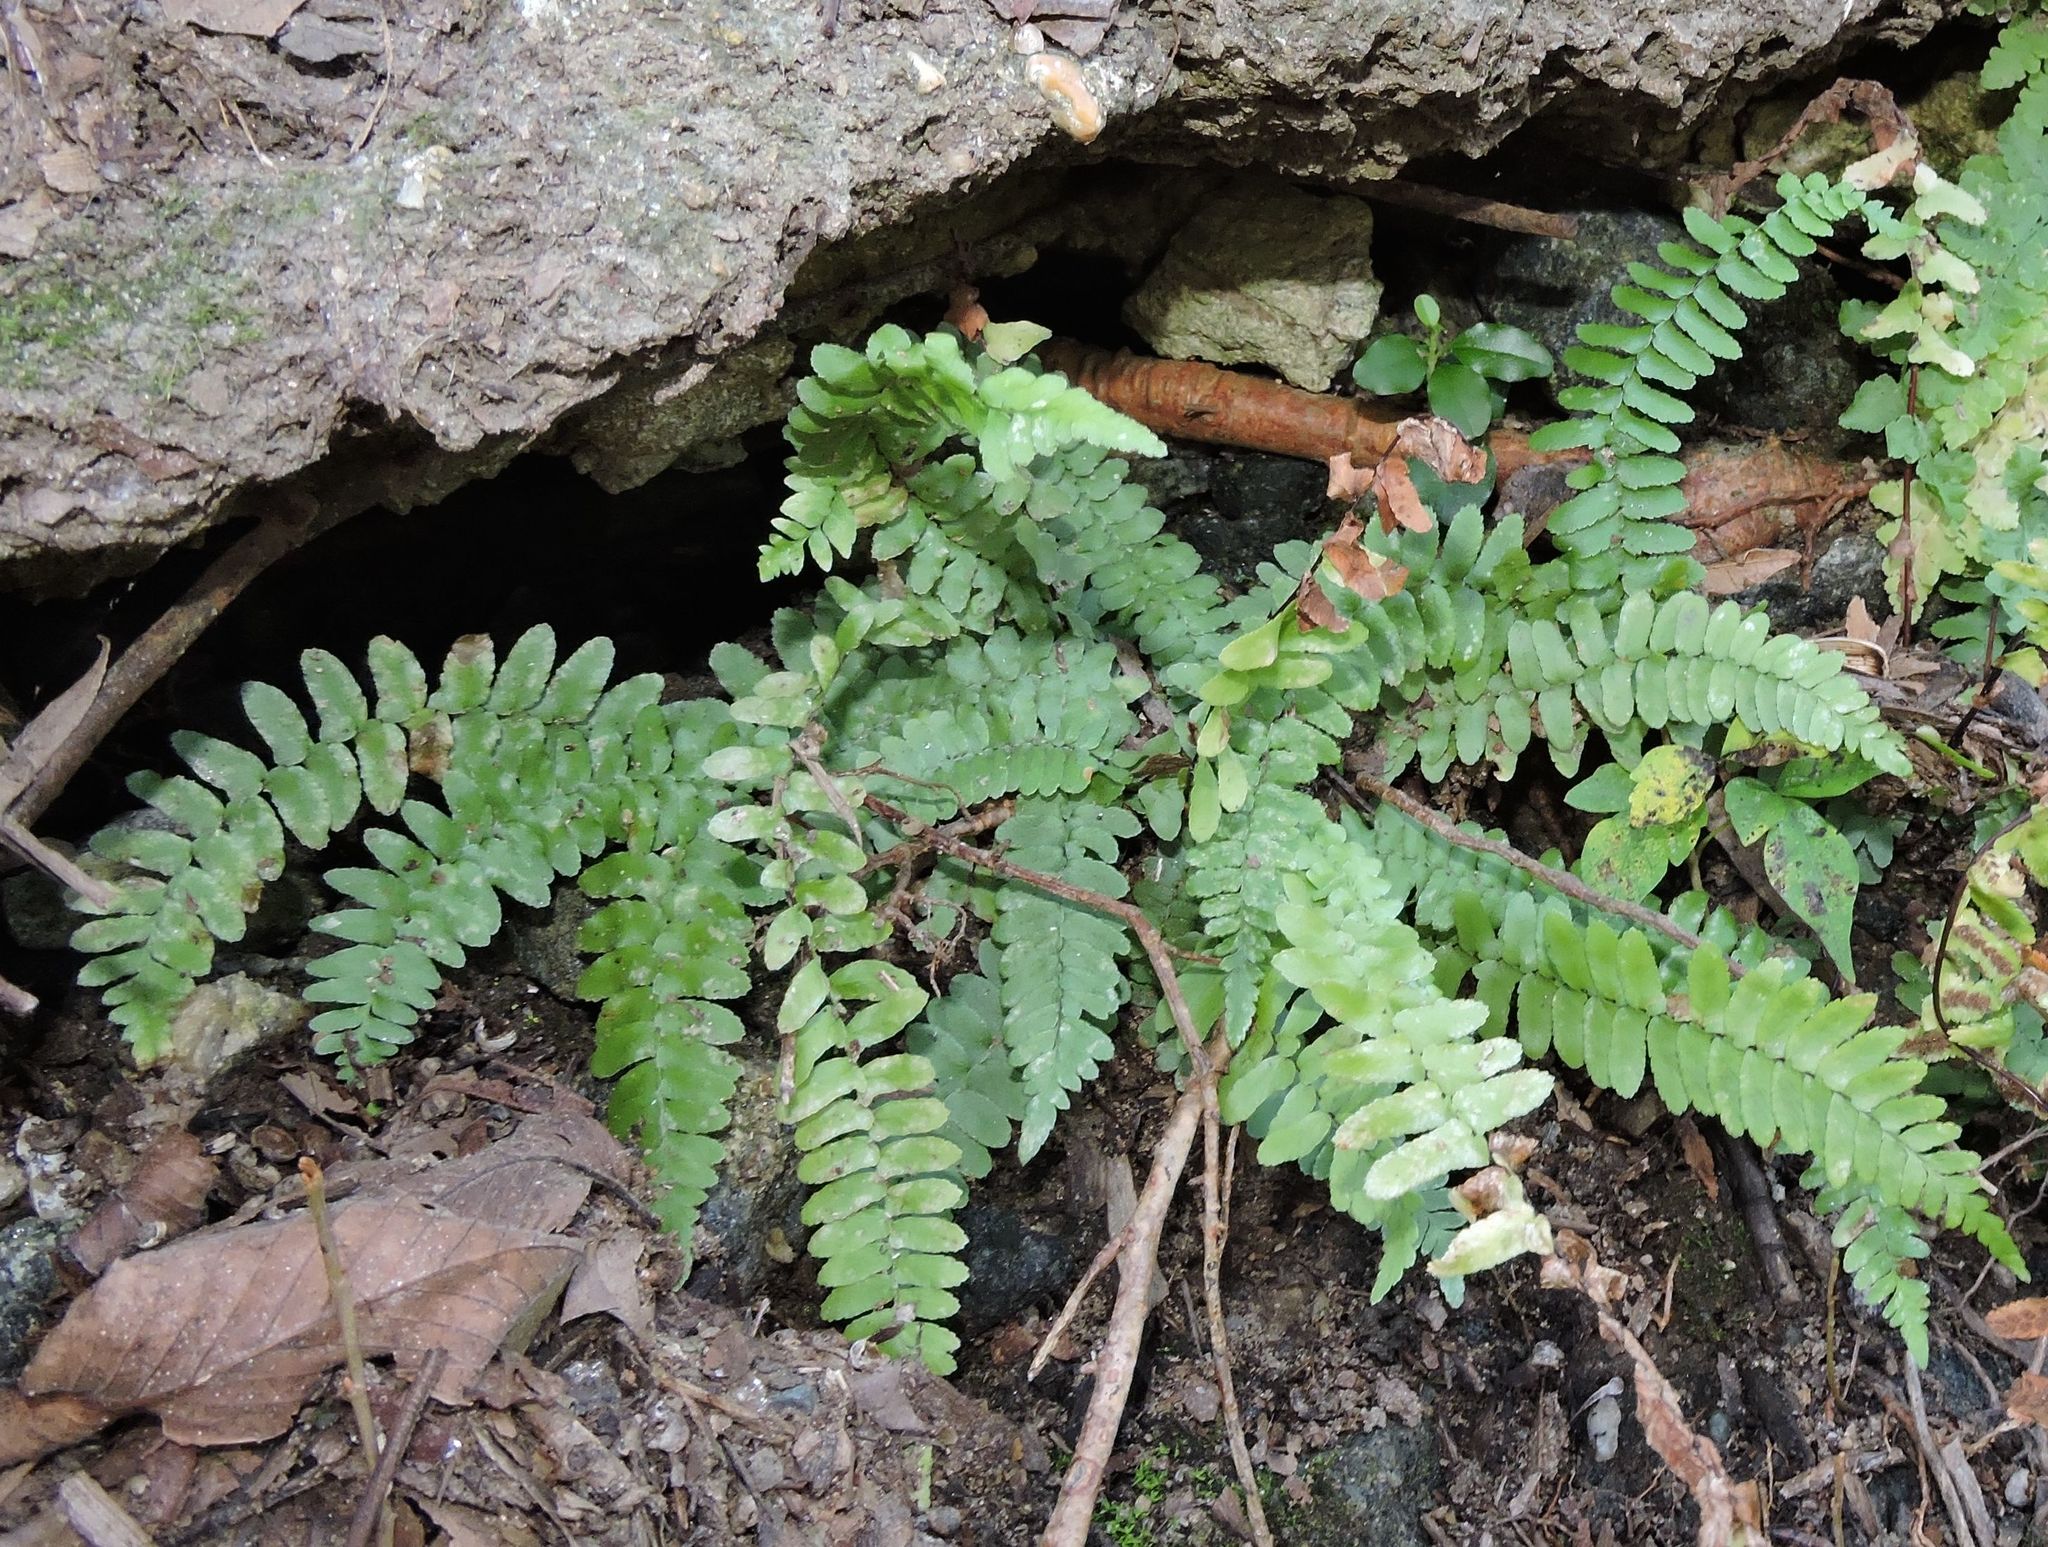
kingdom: Plantae
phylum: Tracheophyta
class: Polypodiopsida
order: Polypodiales
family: Aspleniaceae
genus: Asplenium
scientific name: Asplenium platyneuron
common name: Ebony spleenwort
